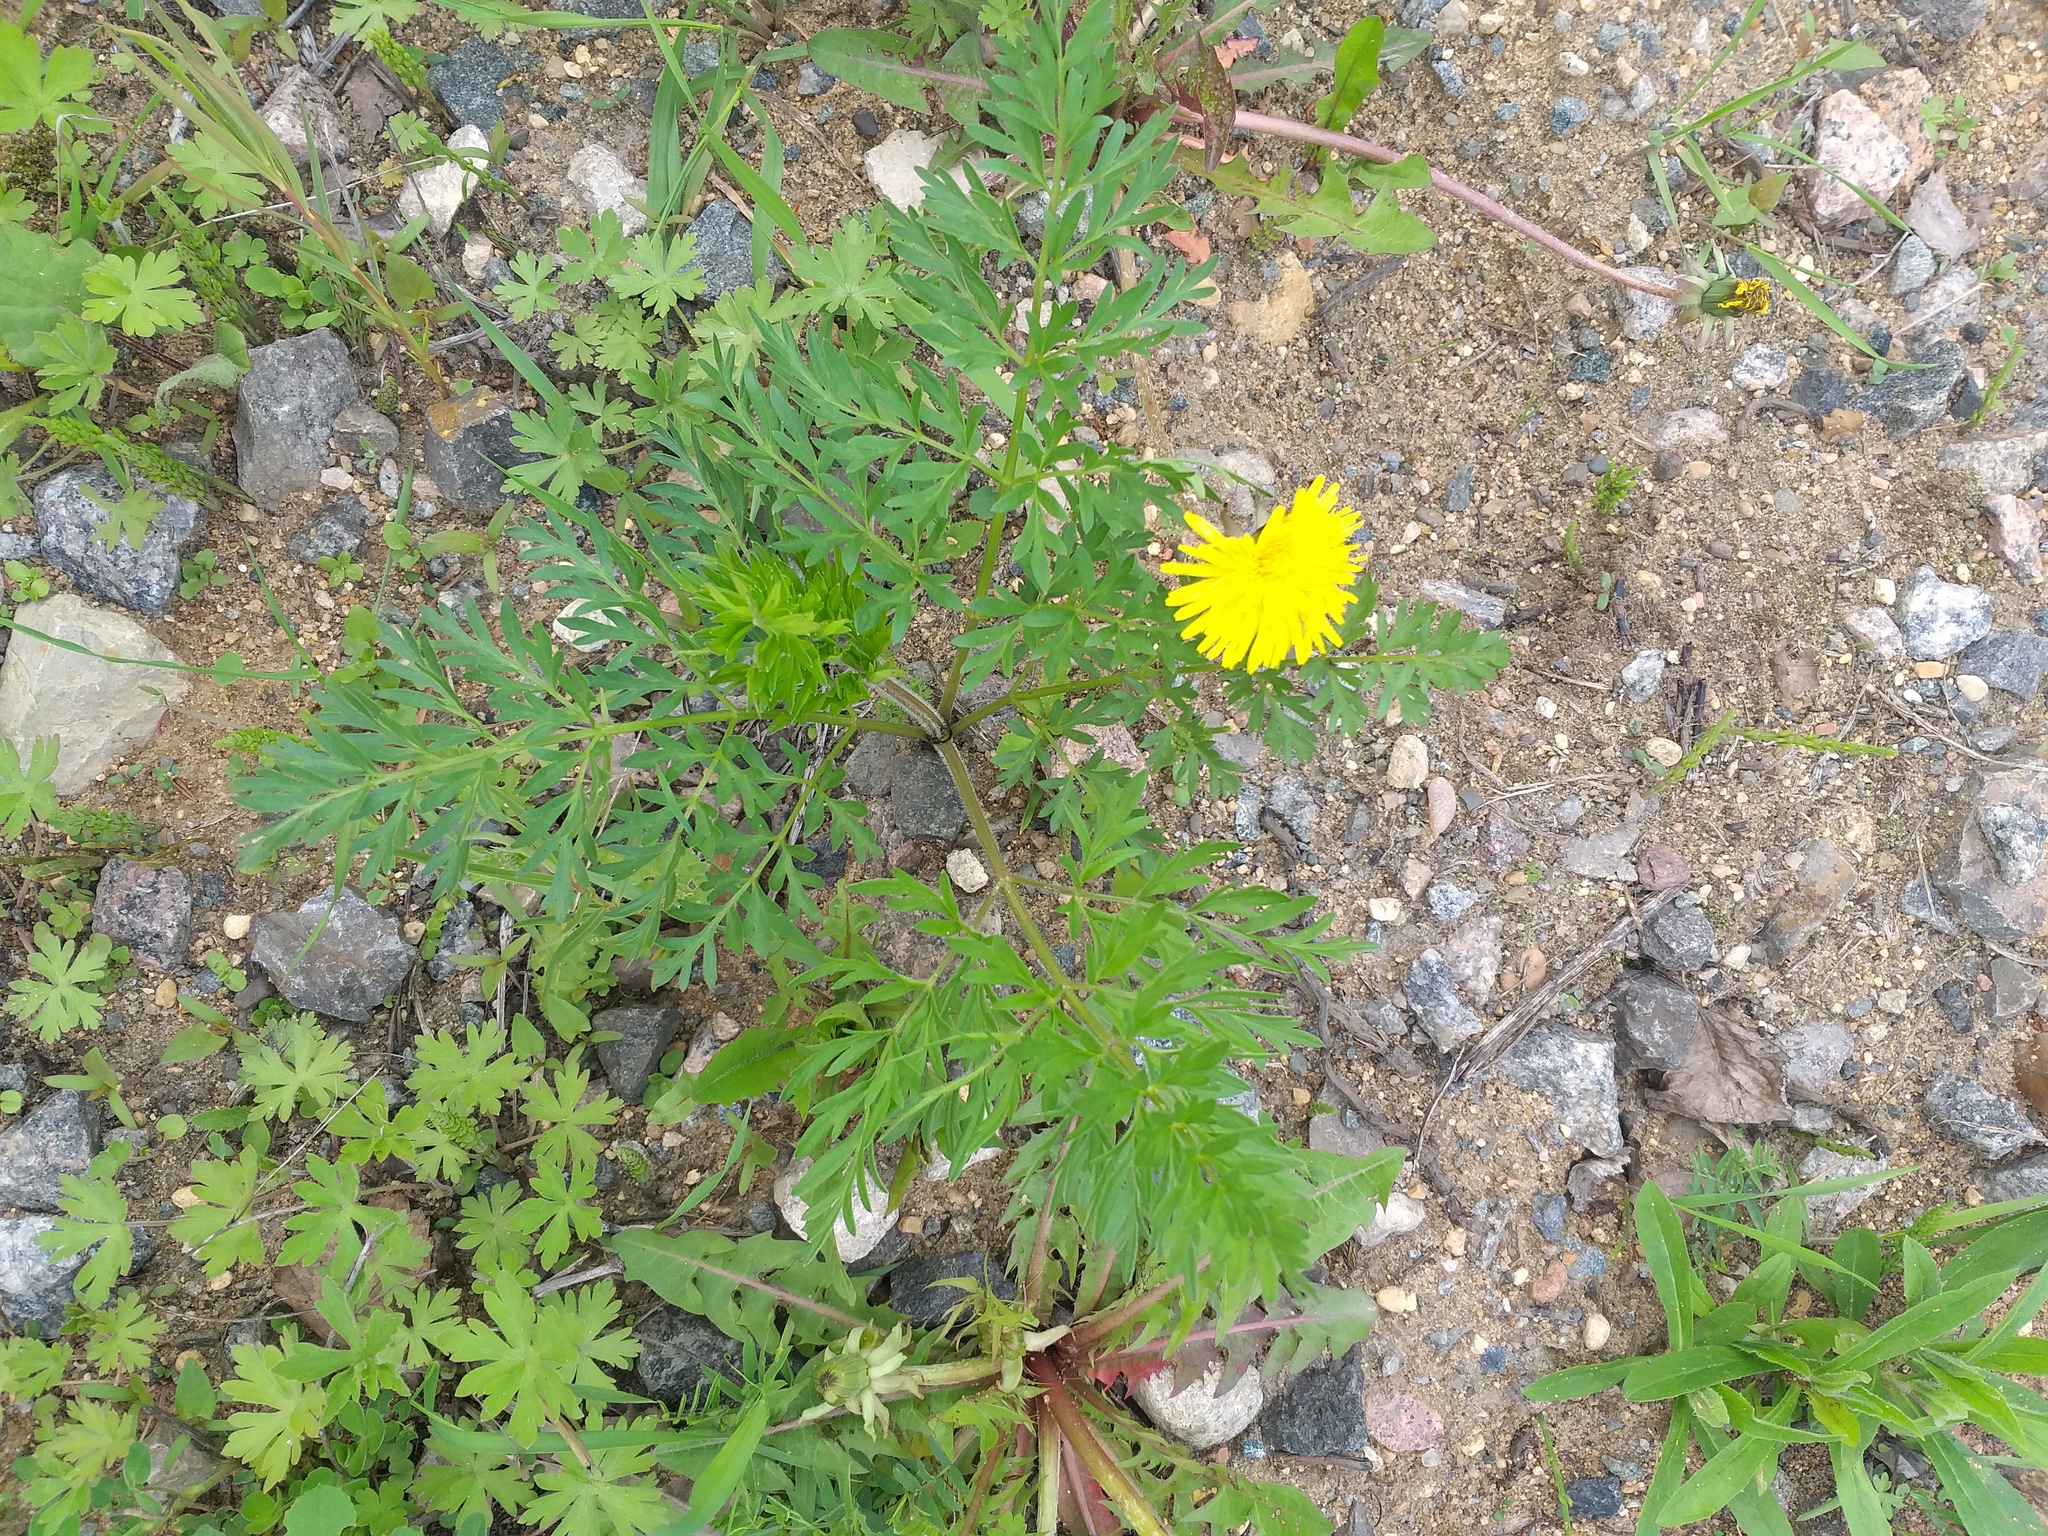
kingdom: Plantae
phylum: Tracheophyta
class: Magnoliopsida
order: Apiales
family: Apiaceae
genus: Daucus
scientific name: Daucus carota
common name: Wild carrot
